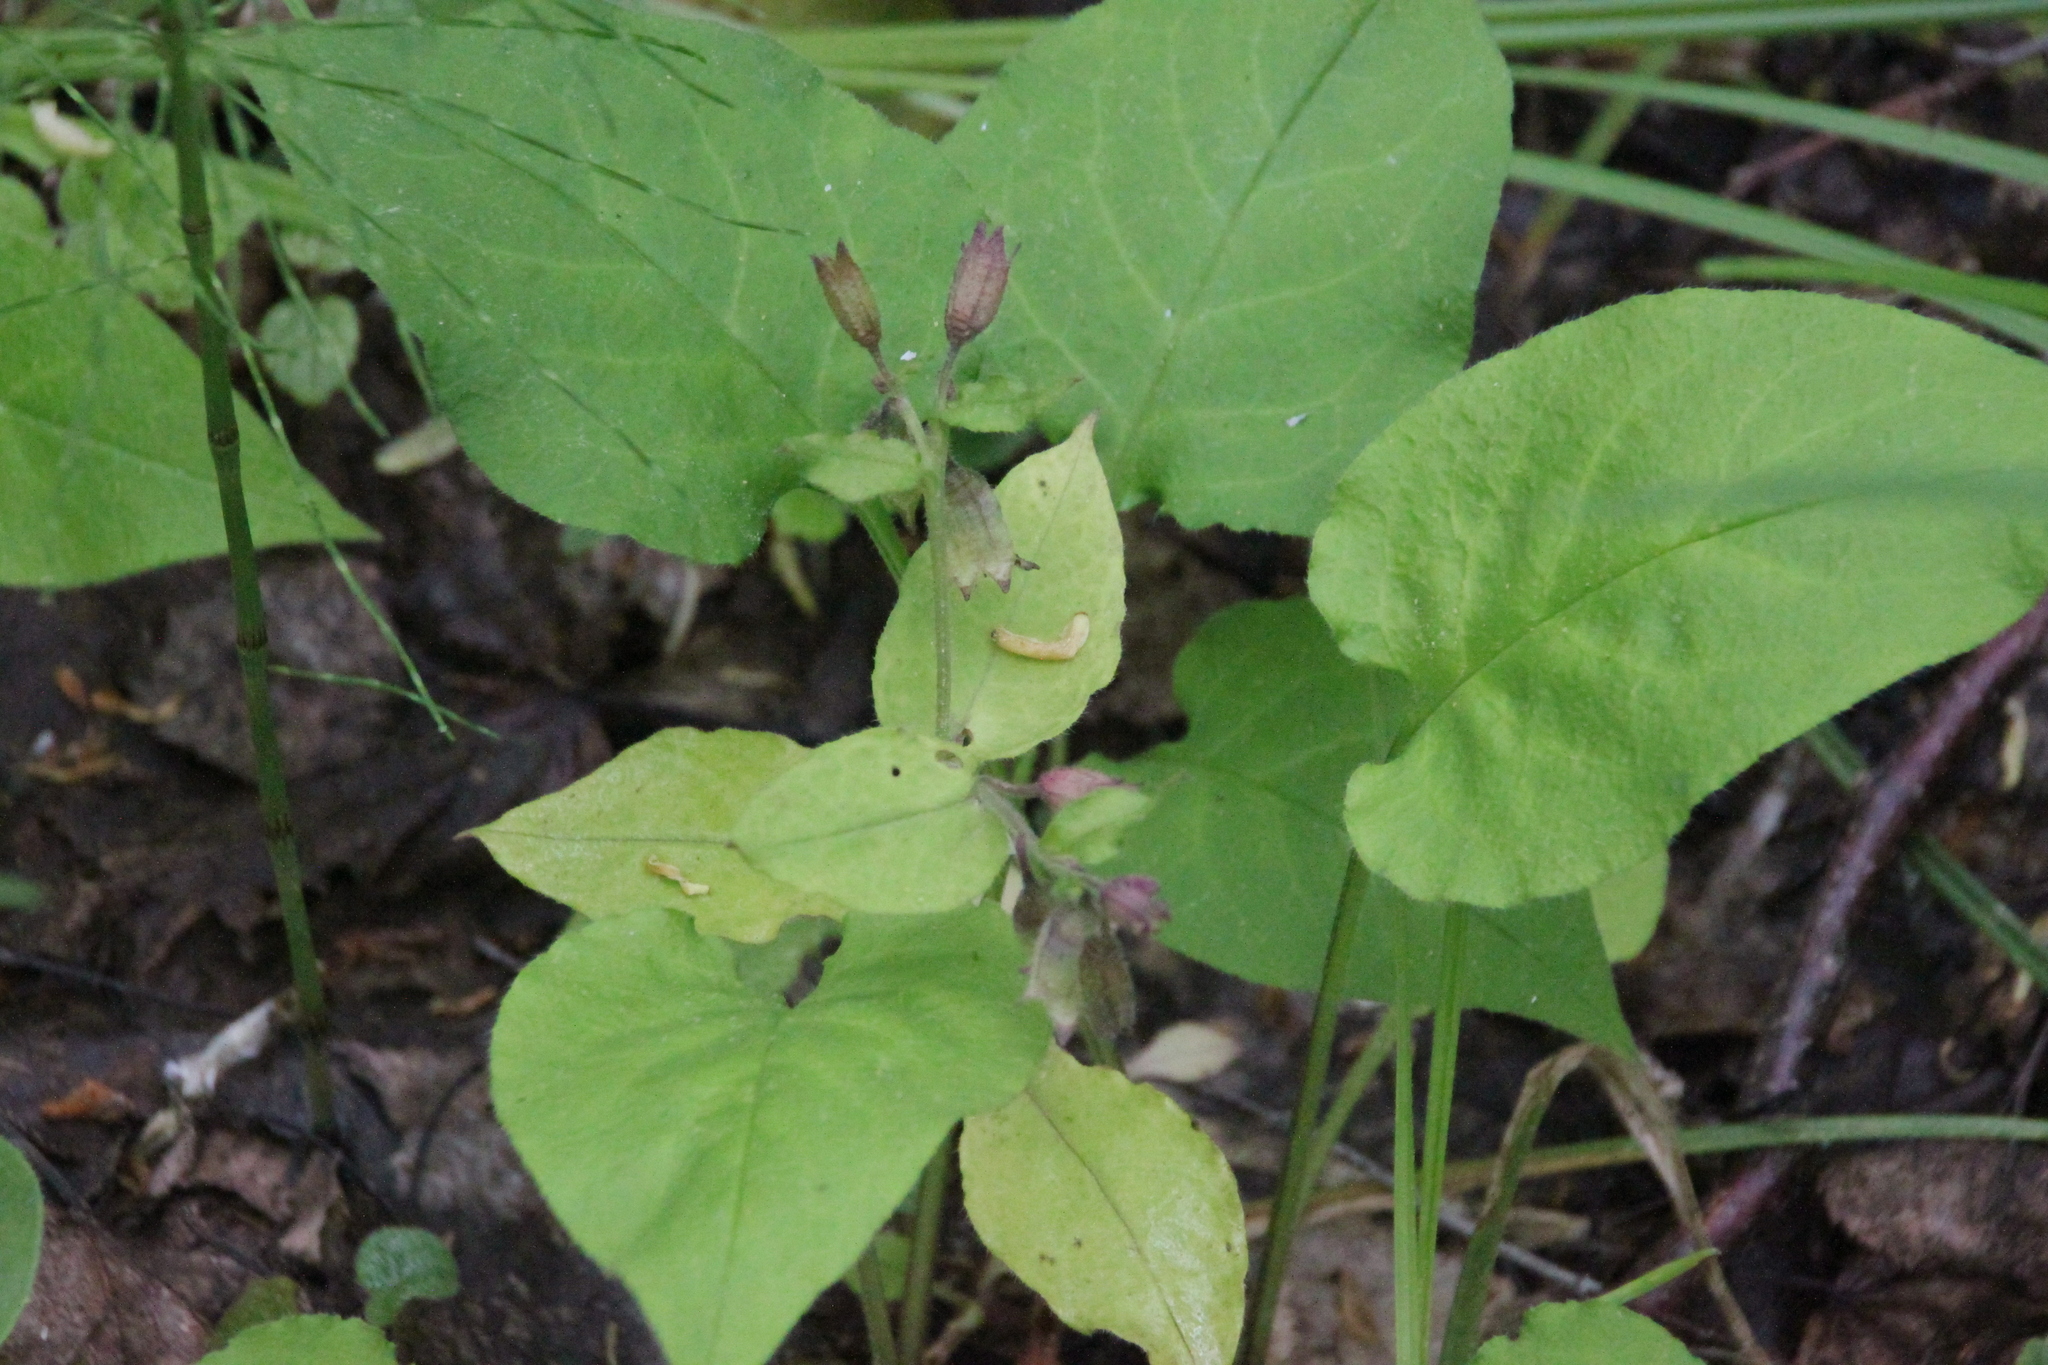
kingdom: Plantae
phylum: Tracheophyta
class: Magnoliopsida
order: Boraginales
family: Boraginaceae
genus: Pulmonaria
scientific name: Pulmonaria obscura
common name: Suffolk lungwort
